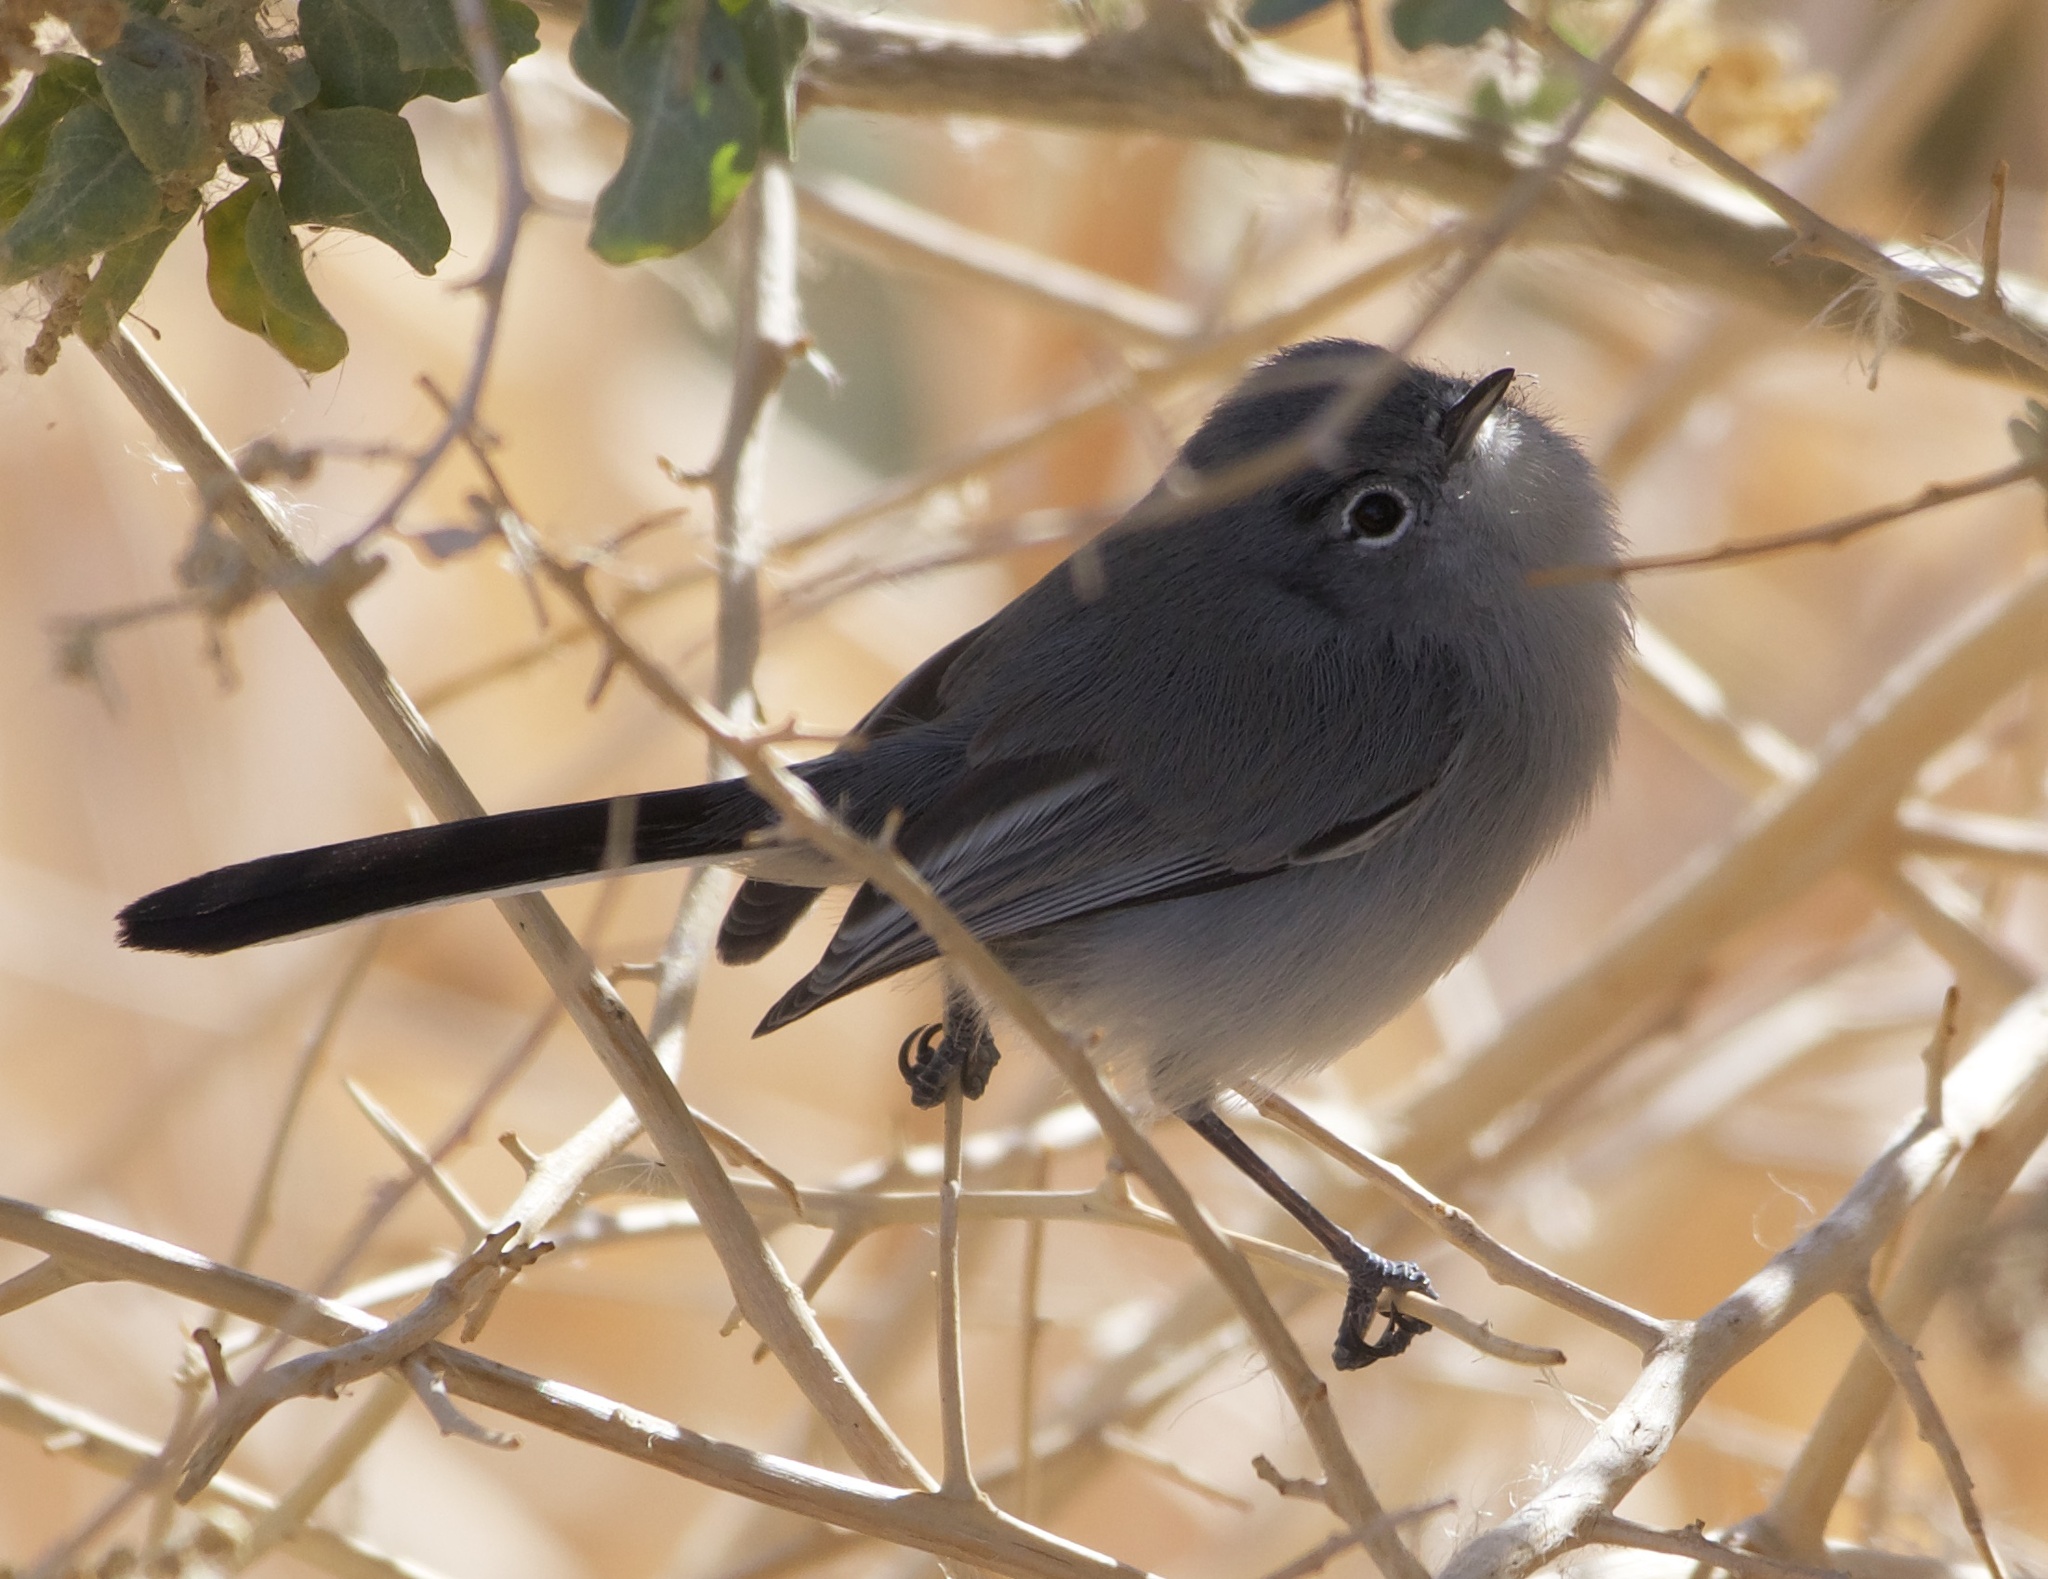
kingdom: Animalia
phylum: Chordata
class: Aves
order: Passeriformes
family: Polioptilidae
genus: Polioptila
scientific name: Polioptila melanura
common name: Black-tailed gnatcatcher
